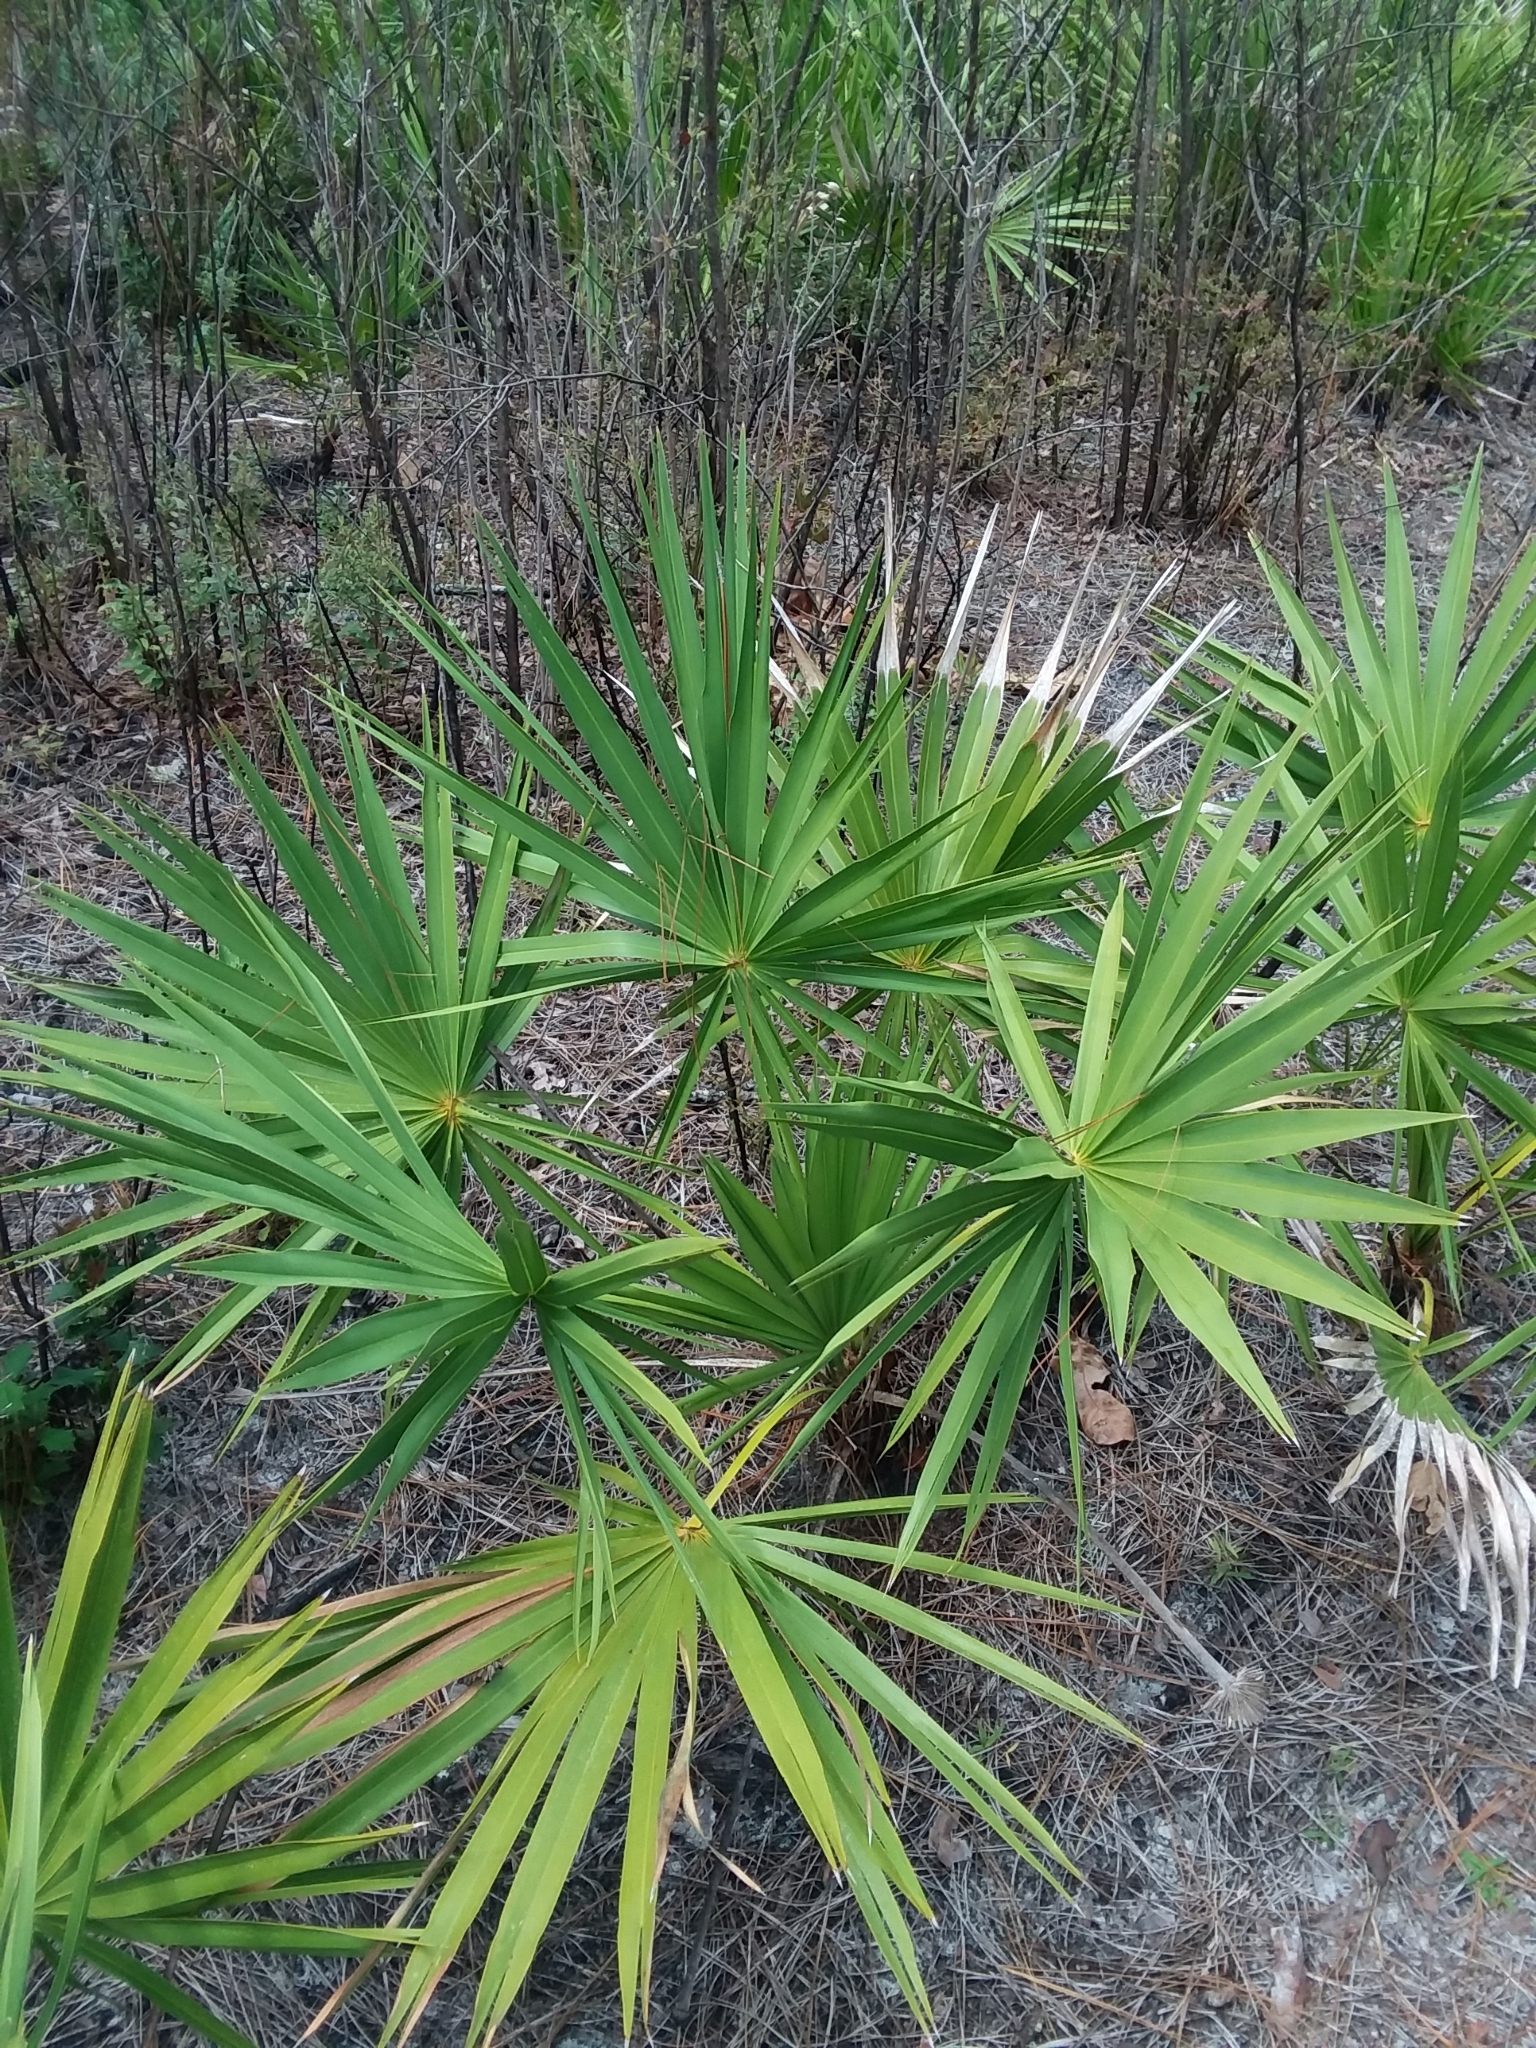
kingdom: Plantae
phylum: Tracheophyta
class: Liliopsida
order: Arecales
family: Arecaceae
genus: Serenoa
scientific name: Serenoa repens
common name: Saw-palmetto
